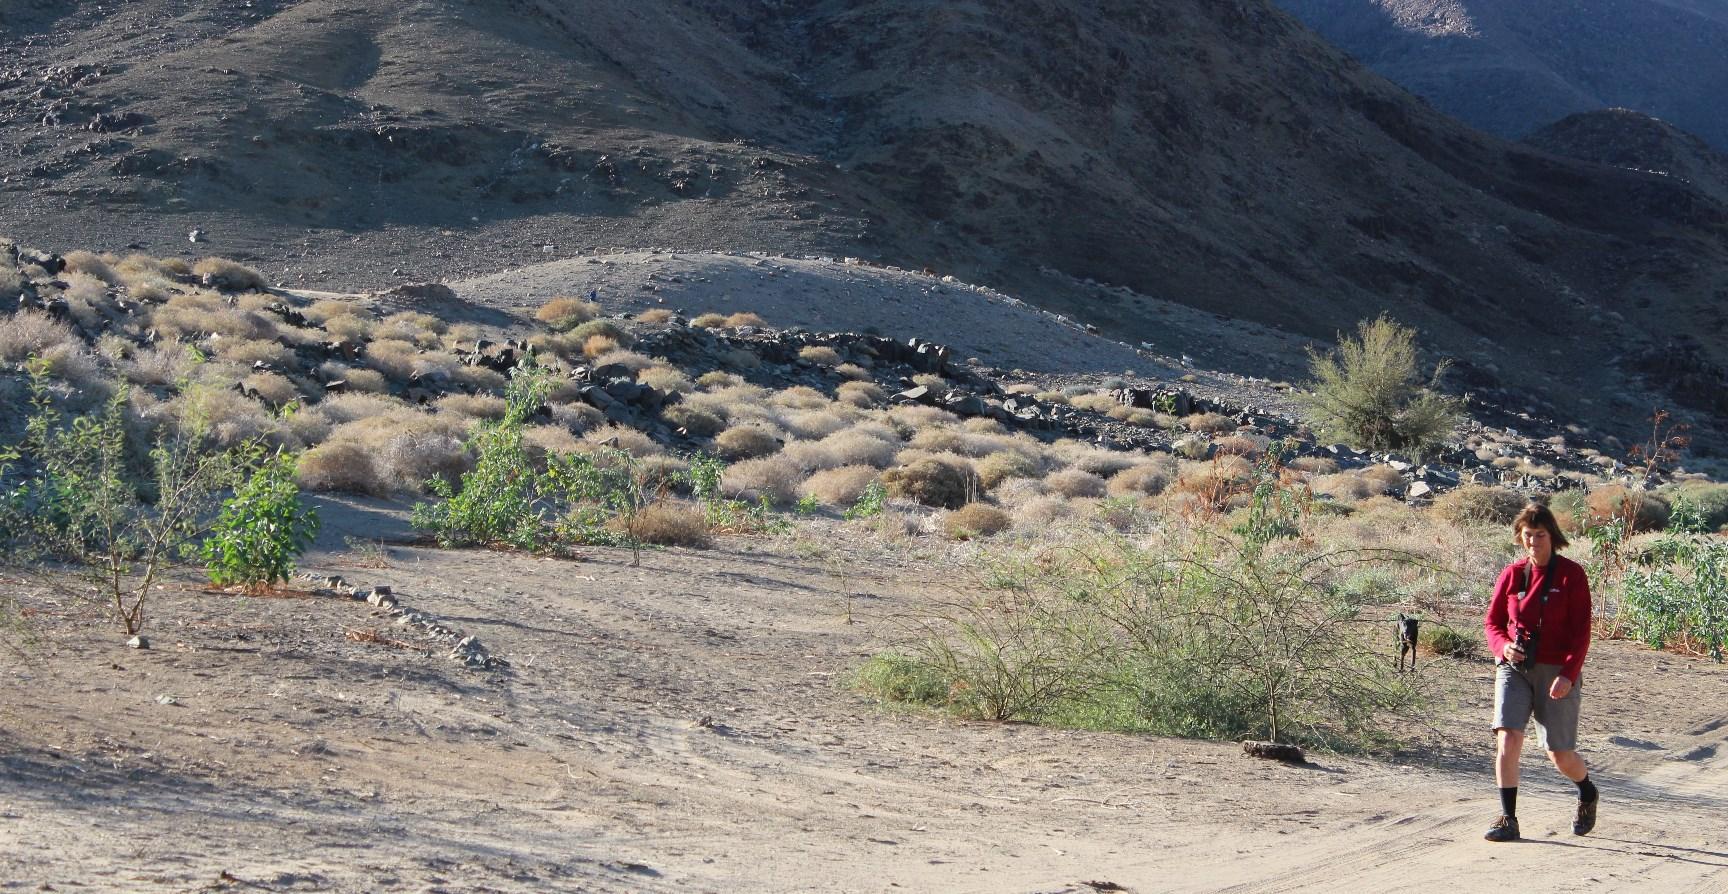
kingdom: Plantae
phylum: Tracheophyta
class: Magnoliopsida
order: Solanales
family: Solanaceae
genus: Nicotiana
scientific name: Nicotiana glauca
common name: Tree tobacco
